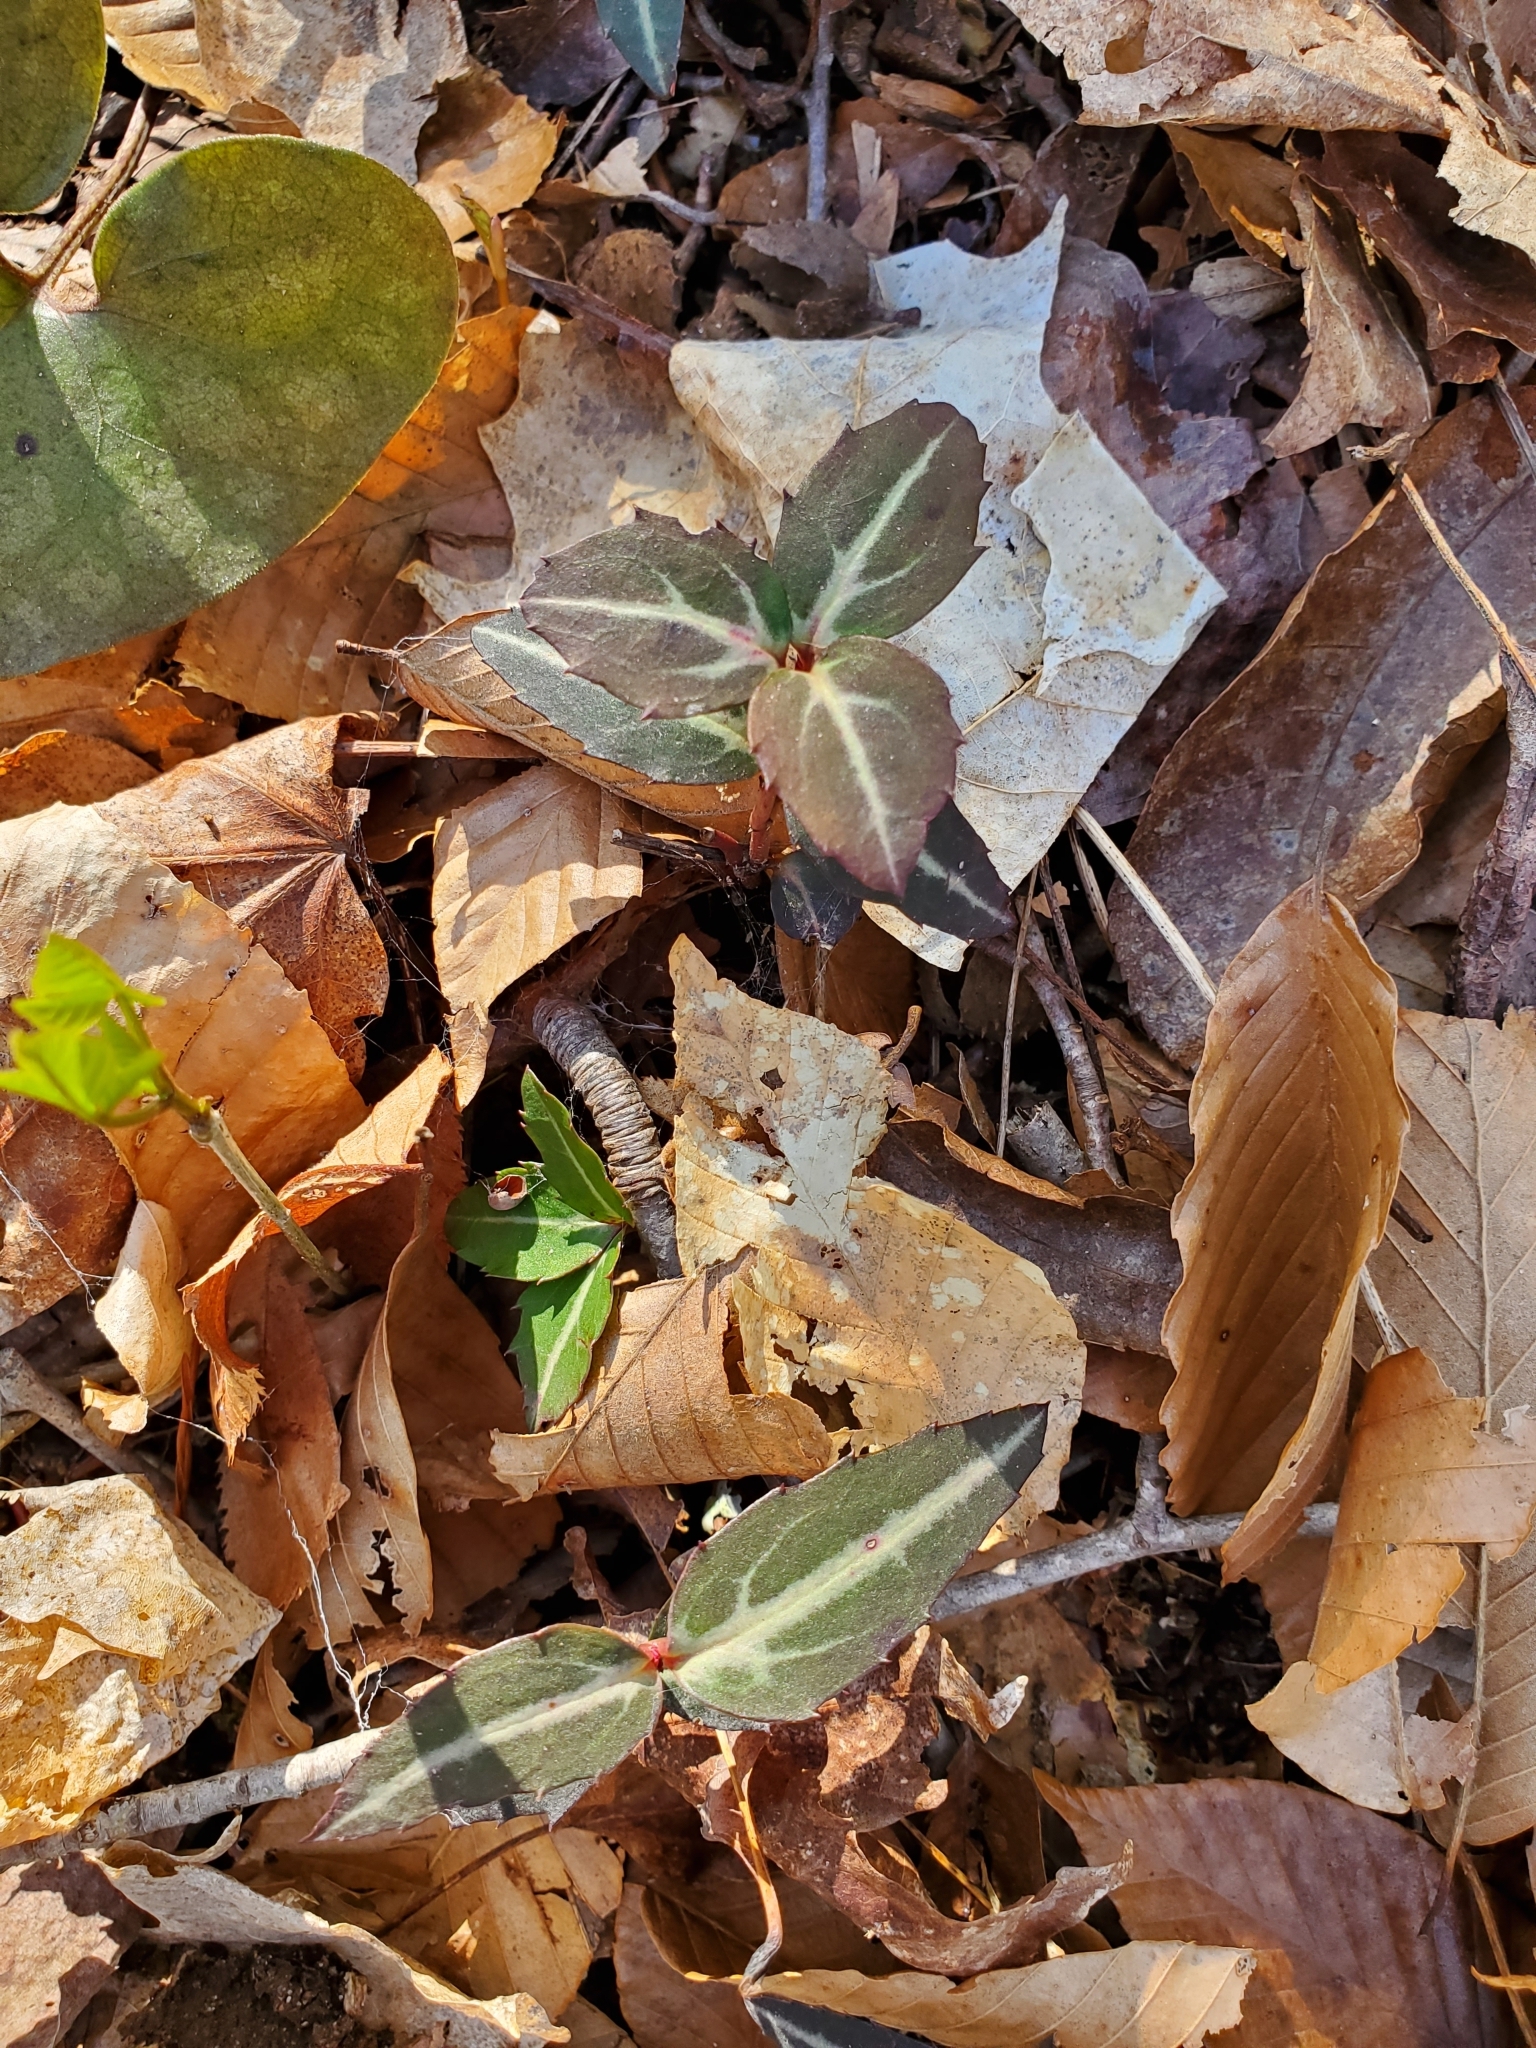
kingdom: Plantae
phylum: Tracheophyta
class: Magnoliopsida
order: Ericales
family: Ericaceae
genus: Chimaphila
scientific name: Chimaphila maculata
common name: Spotted pipsissewa
